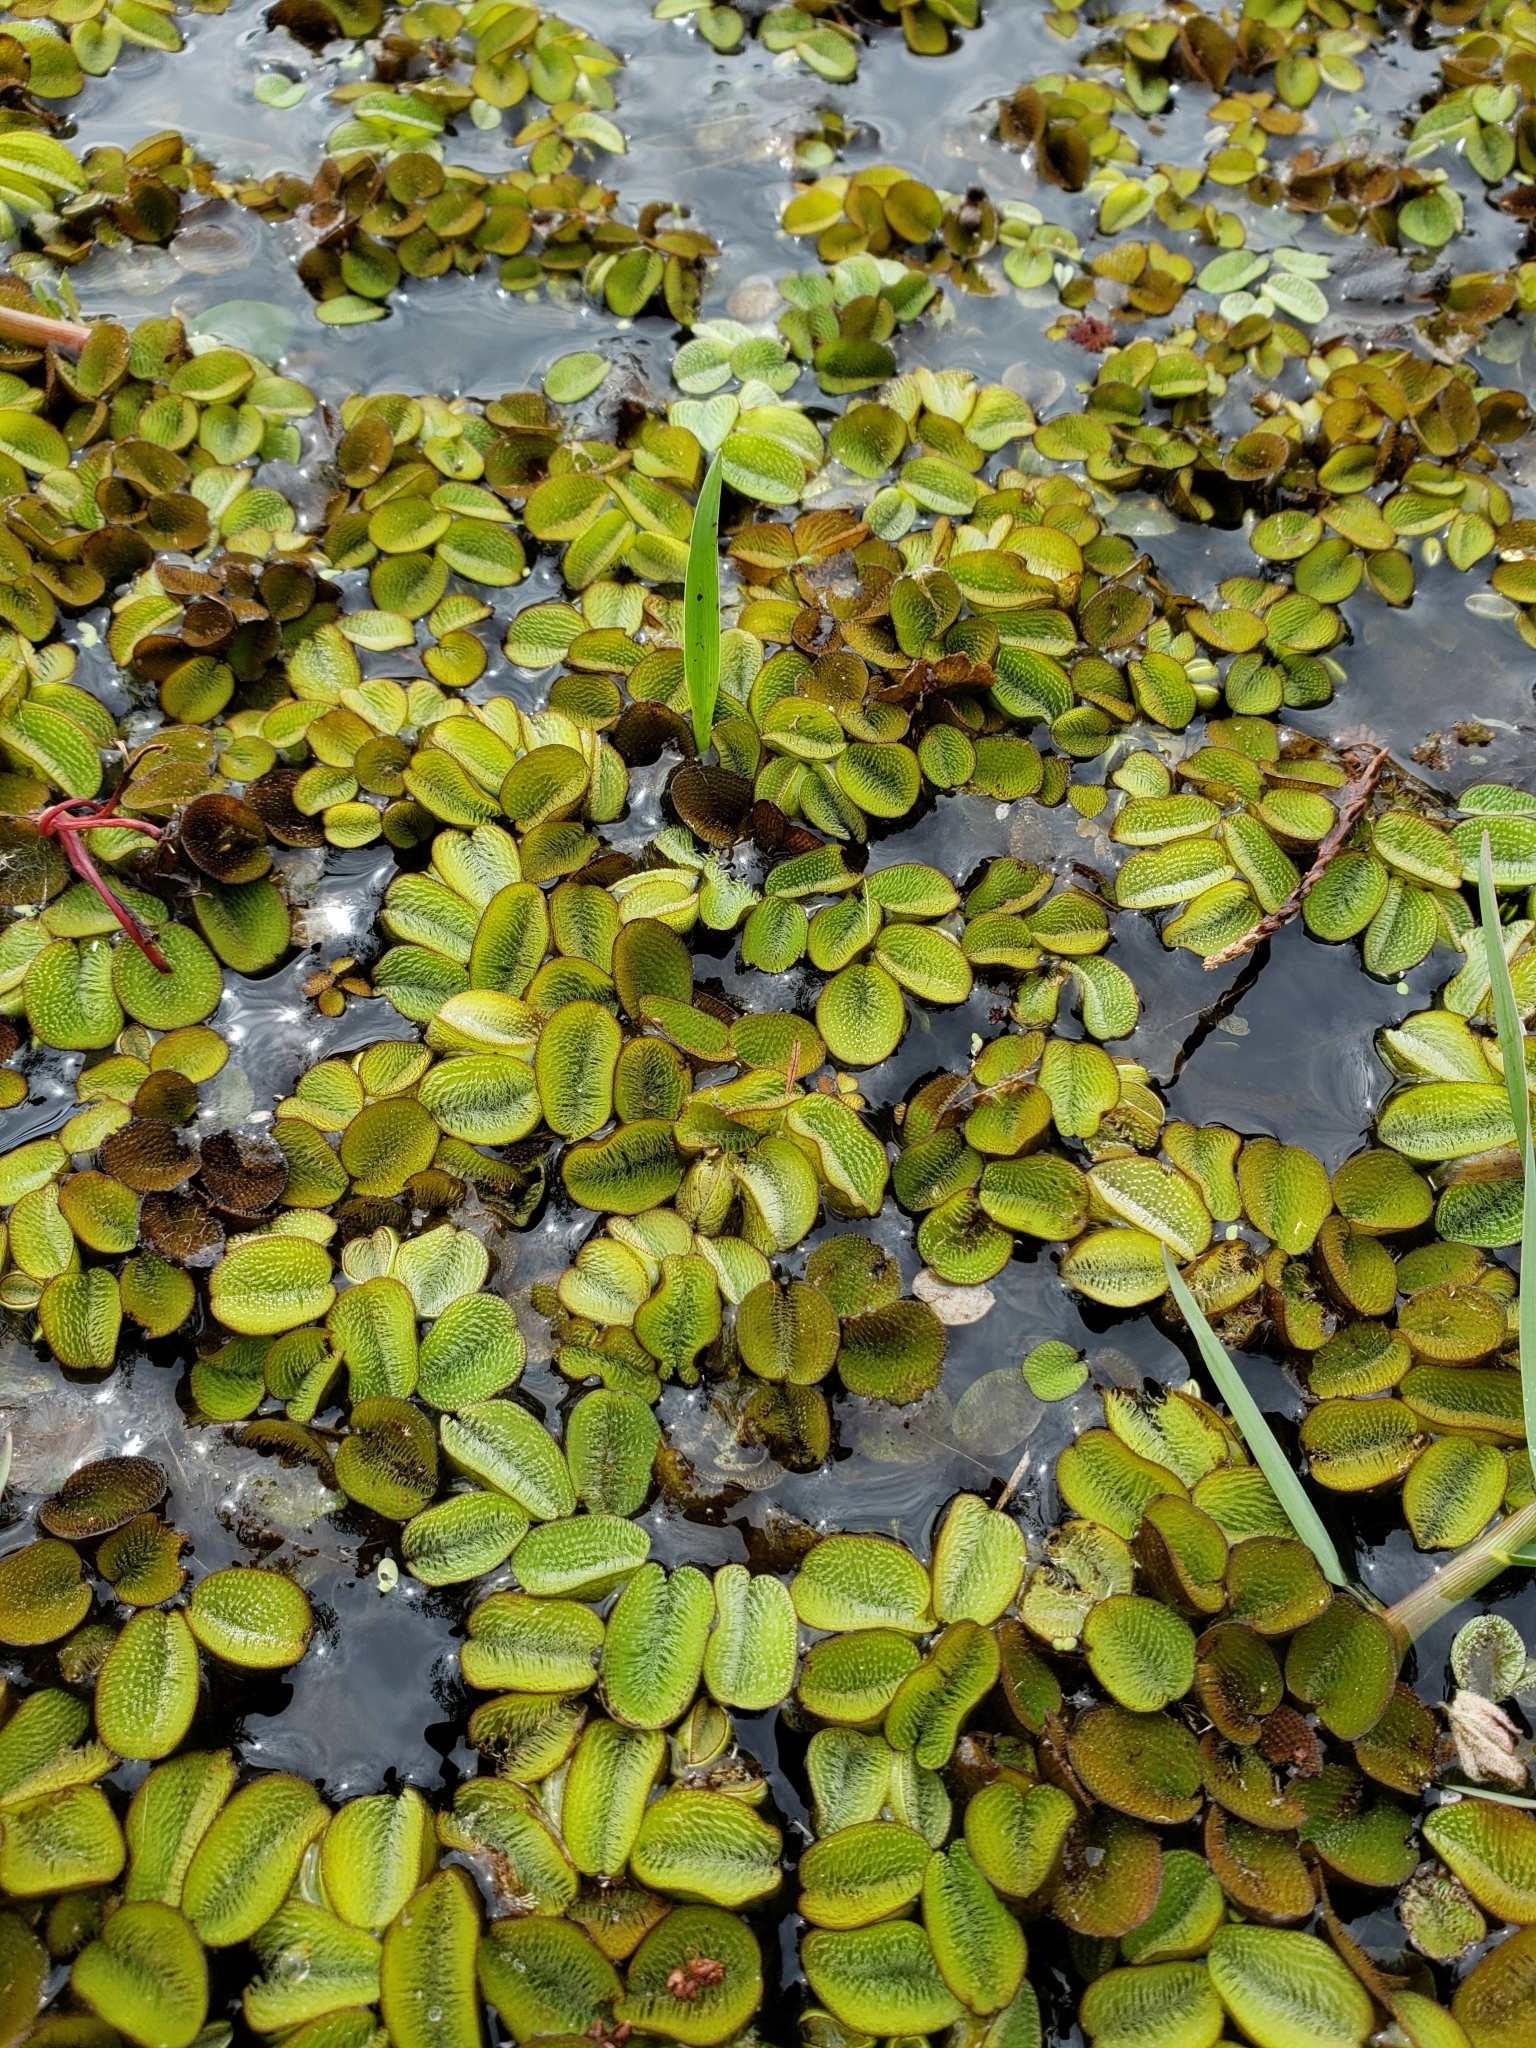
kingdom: Plantae
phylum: Tracheophyta
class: Polypodiopsida
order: Salviniales
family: Salviniaceae
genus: Salvinia
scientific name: Salvinia minima
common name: Water spangles
